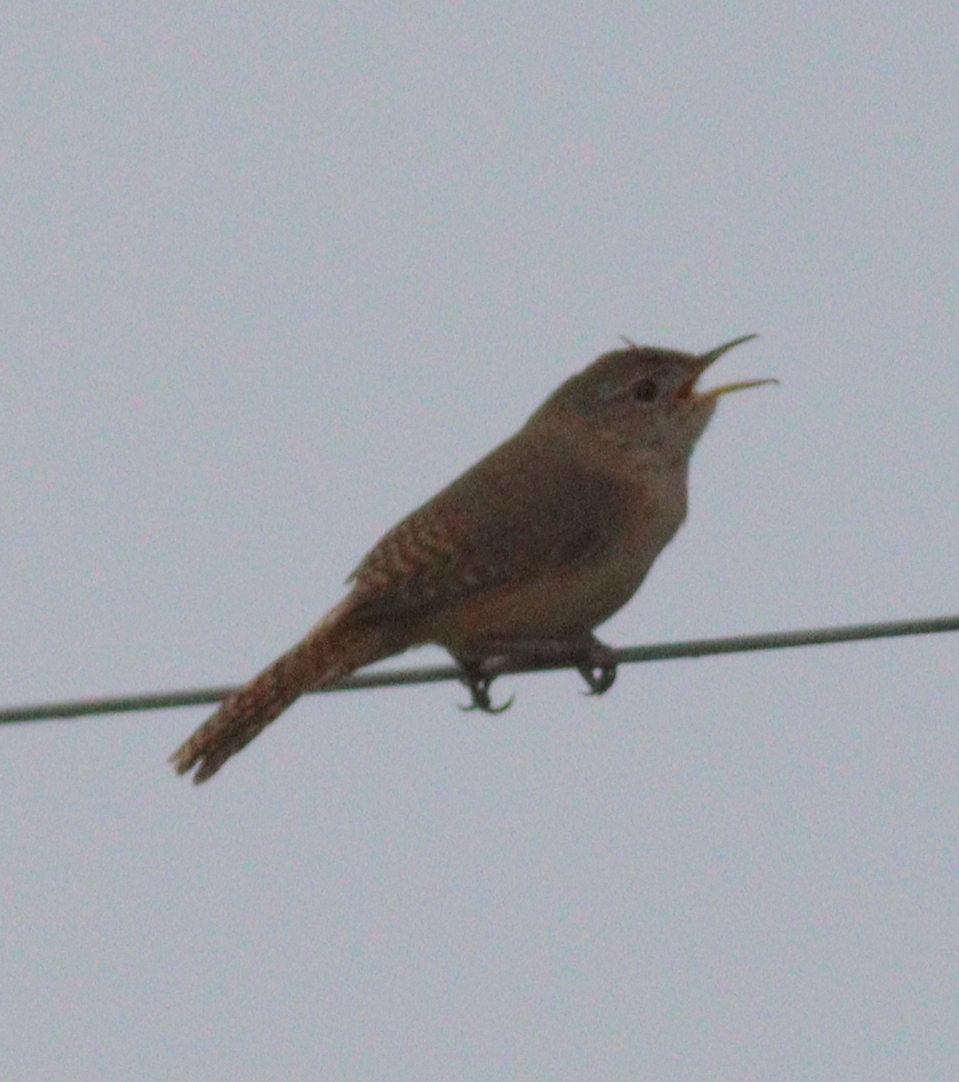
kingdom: Animalia
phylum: Chordata
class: Aves
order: Passeriformes
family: Troglodytidae
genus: Troglodytes
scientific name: Troglodytes aedon
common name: House wren
